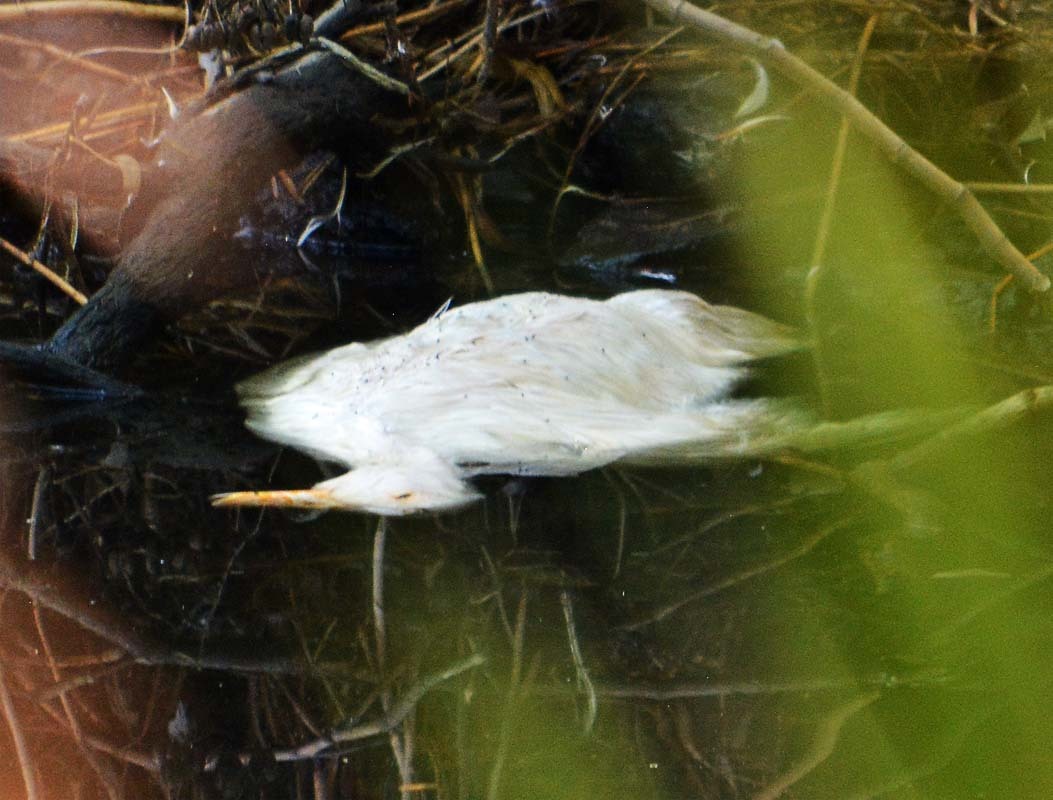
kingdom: Animalia
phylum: Chordata
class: Aves
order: Pelecaniformes
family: Ardeidae
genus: Ardea
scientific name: Ardea alba
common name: Great egret
